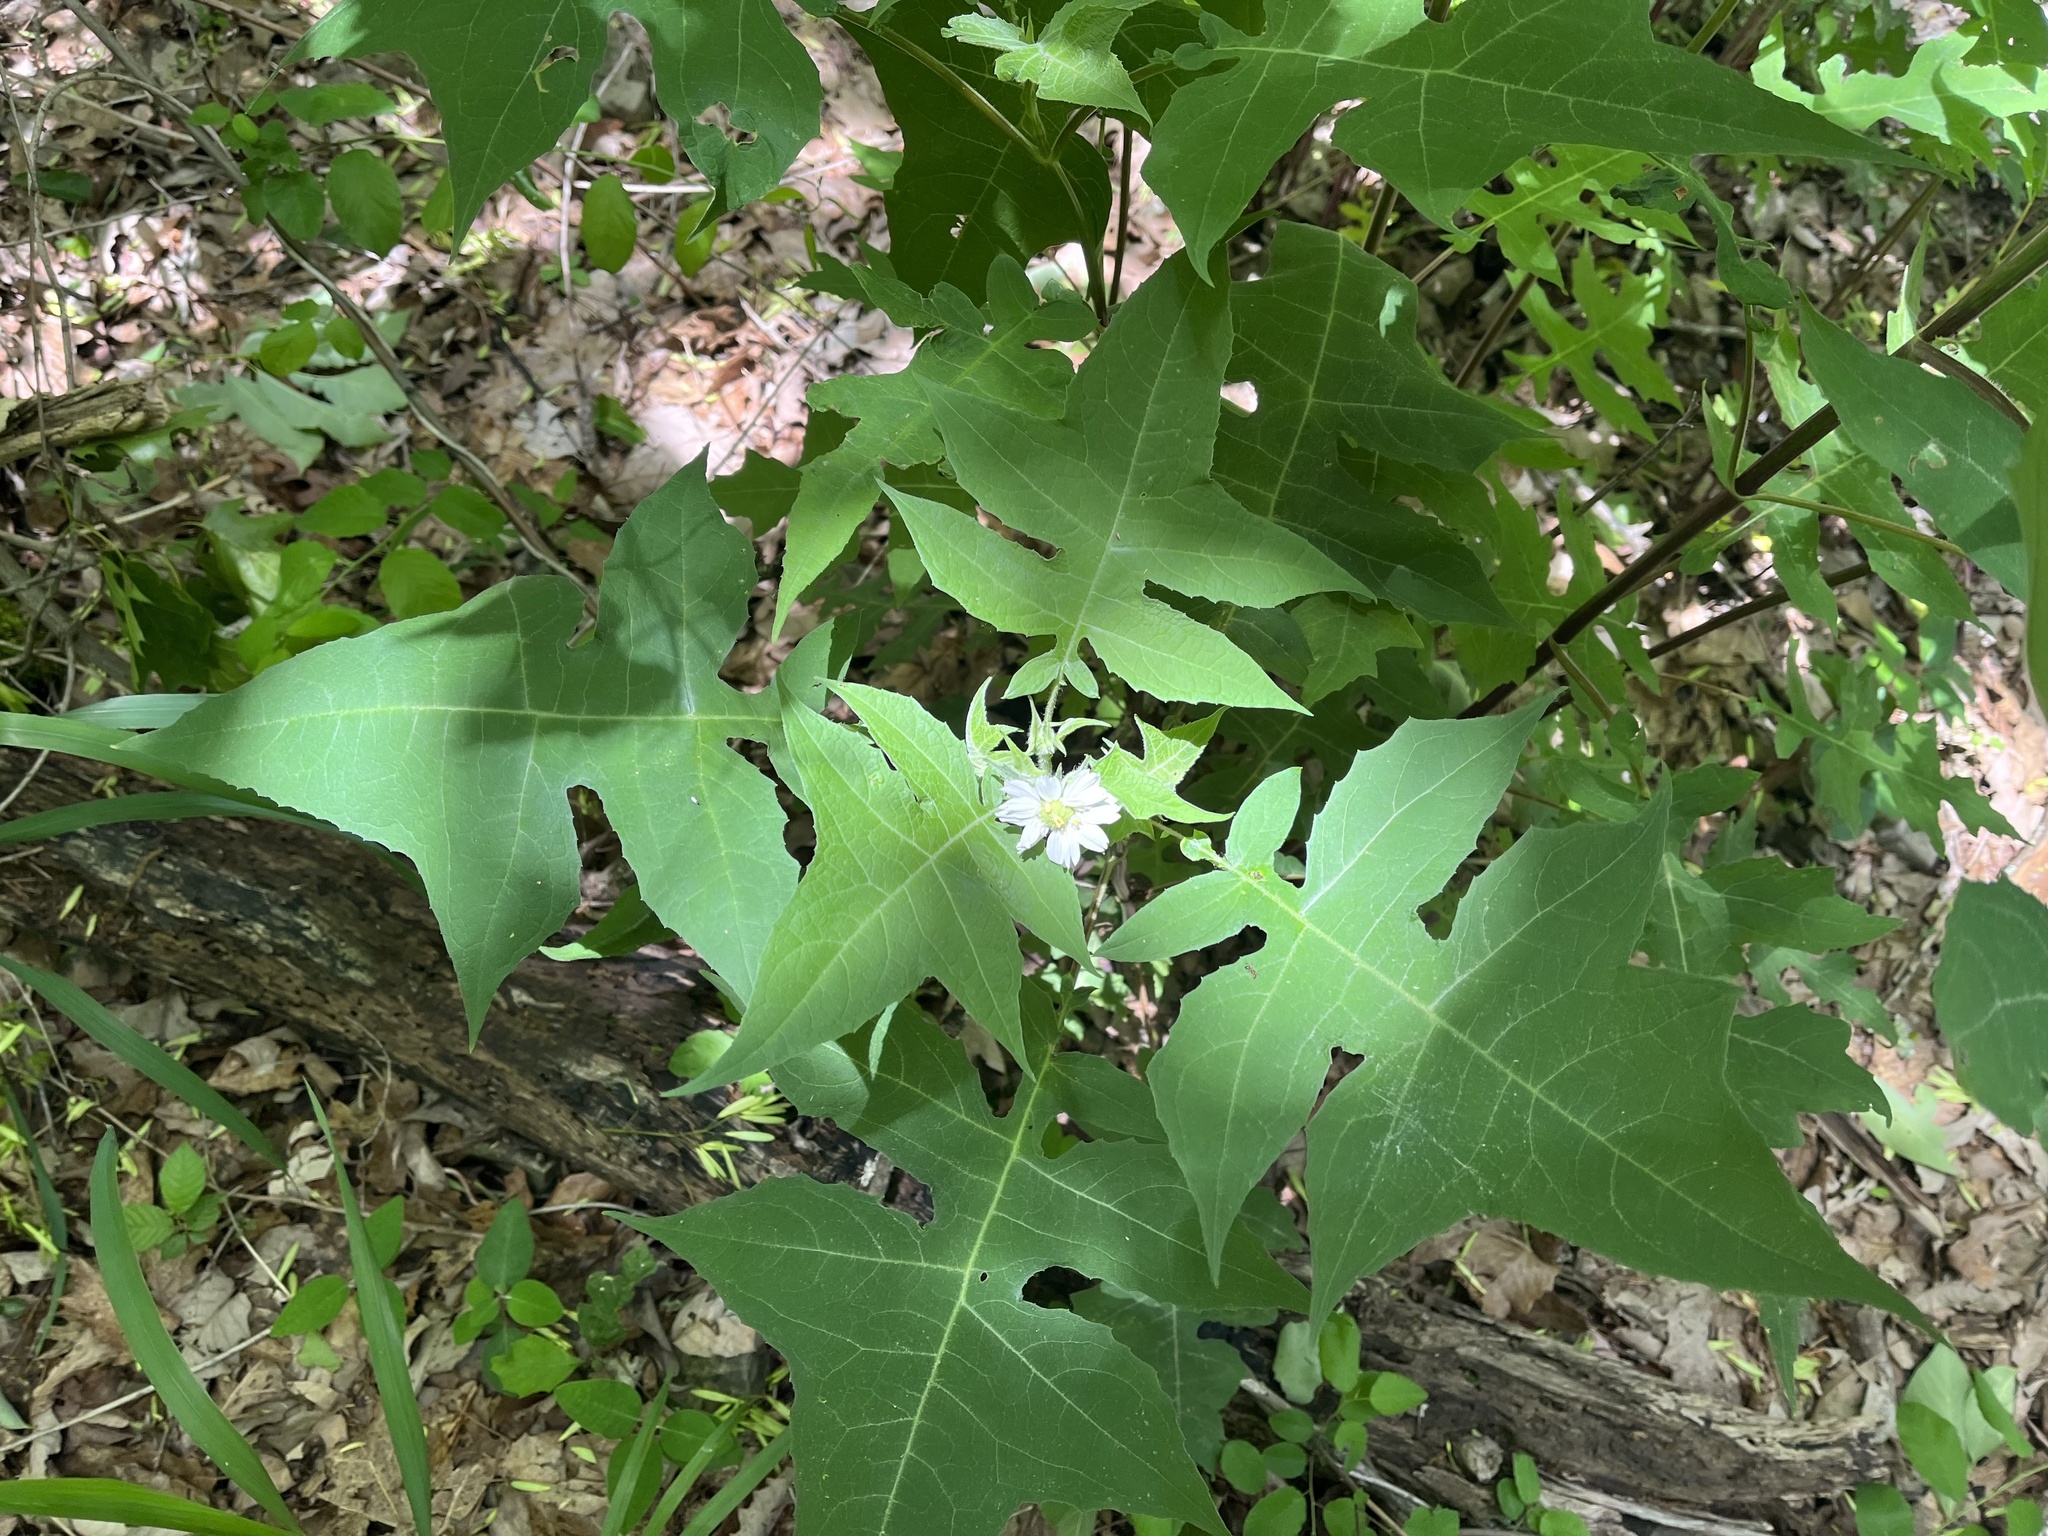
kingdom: Plantae
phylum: Tracheophyta
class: Magnoliopsida
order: Asterales
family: Asteraceae
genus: Polymnia
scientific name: Polymnia canadensis
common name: Pale-flowered leafcup
